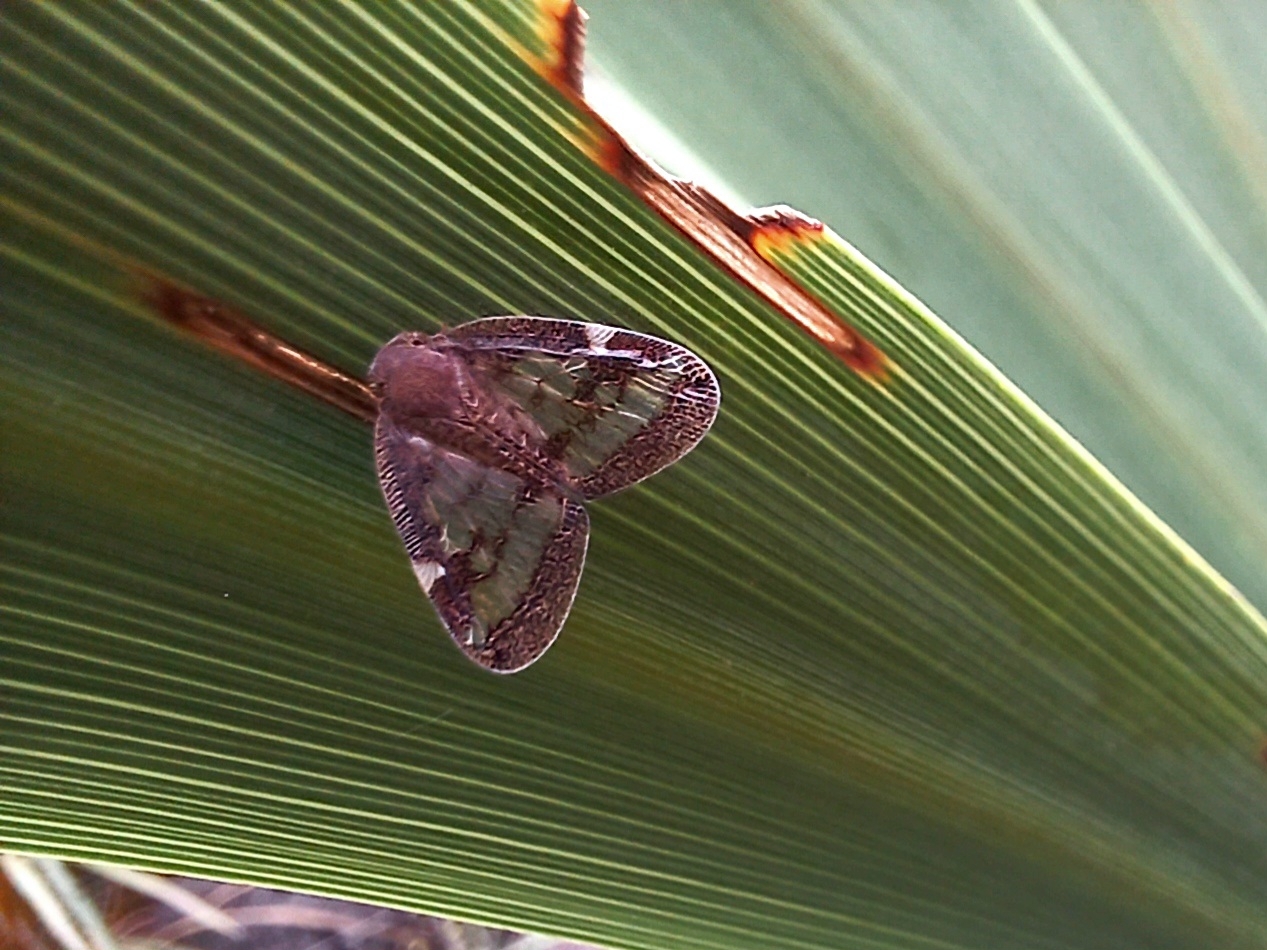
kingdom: Animalia
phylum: Arthropoda
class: Insecta
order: Hemiptera
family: Ricaniidae
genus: Scolypopa
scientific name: Scolypopa australis
